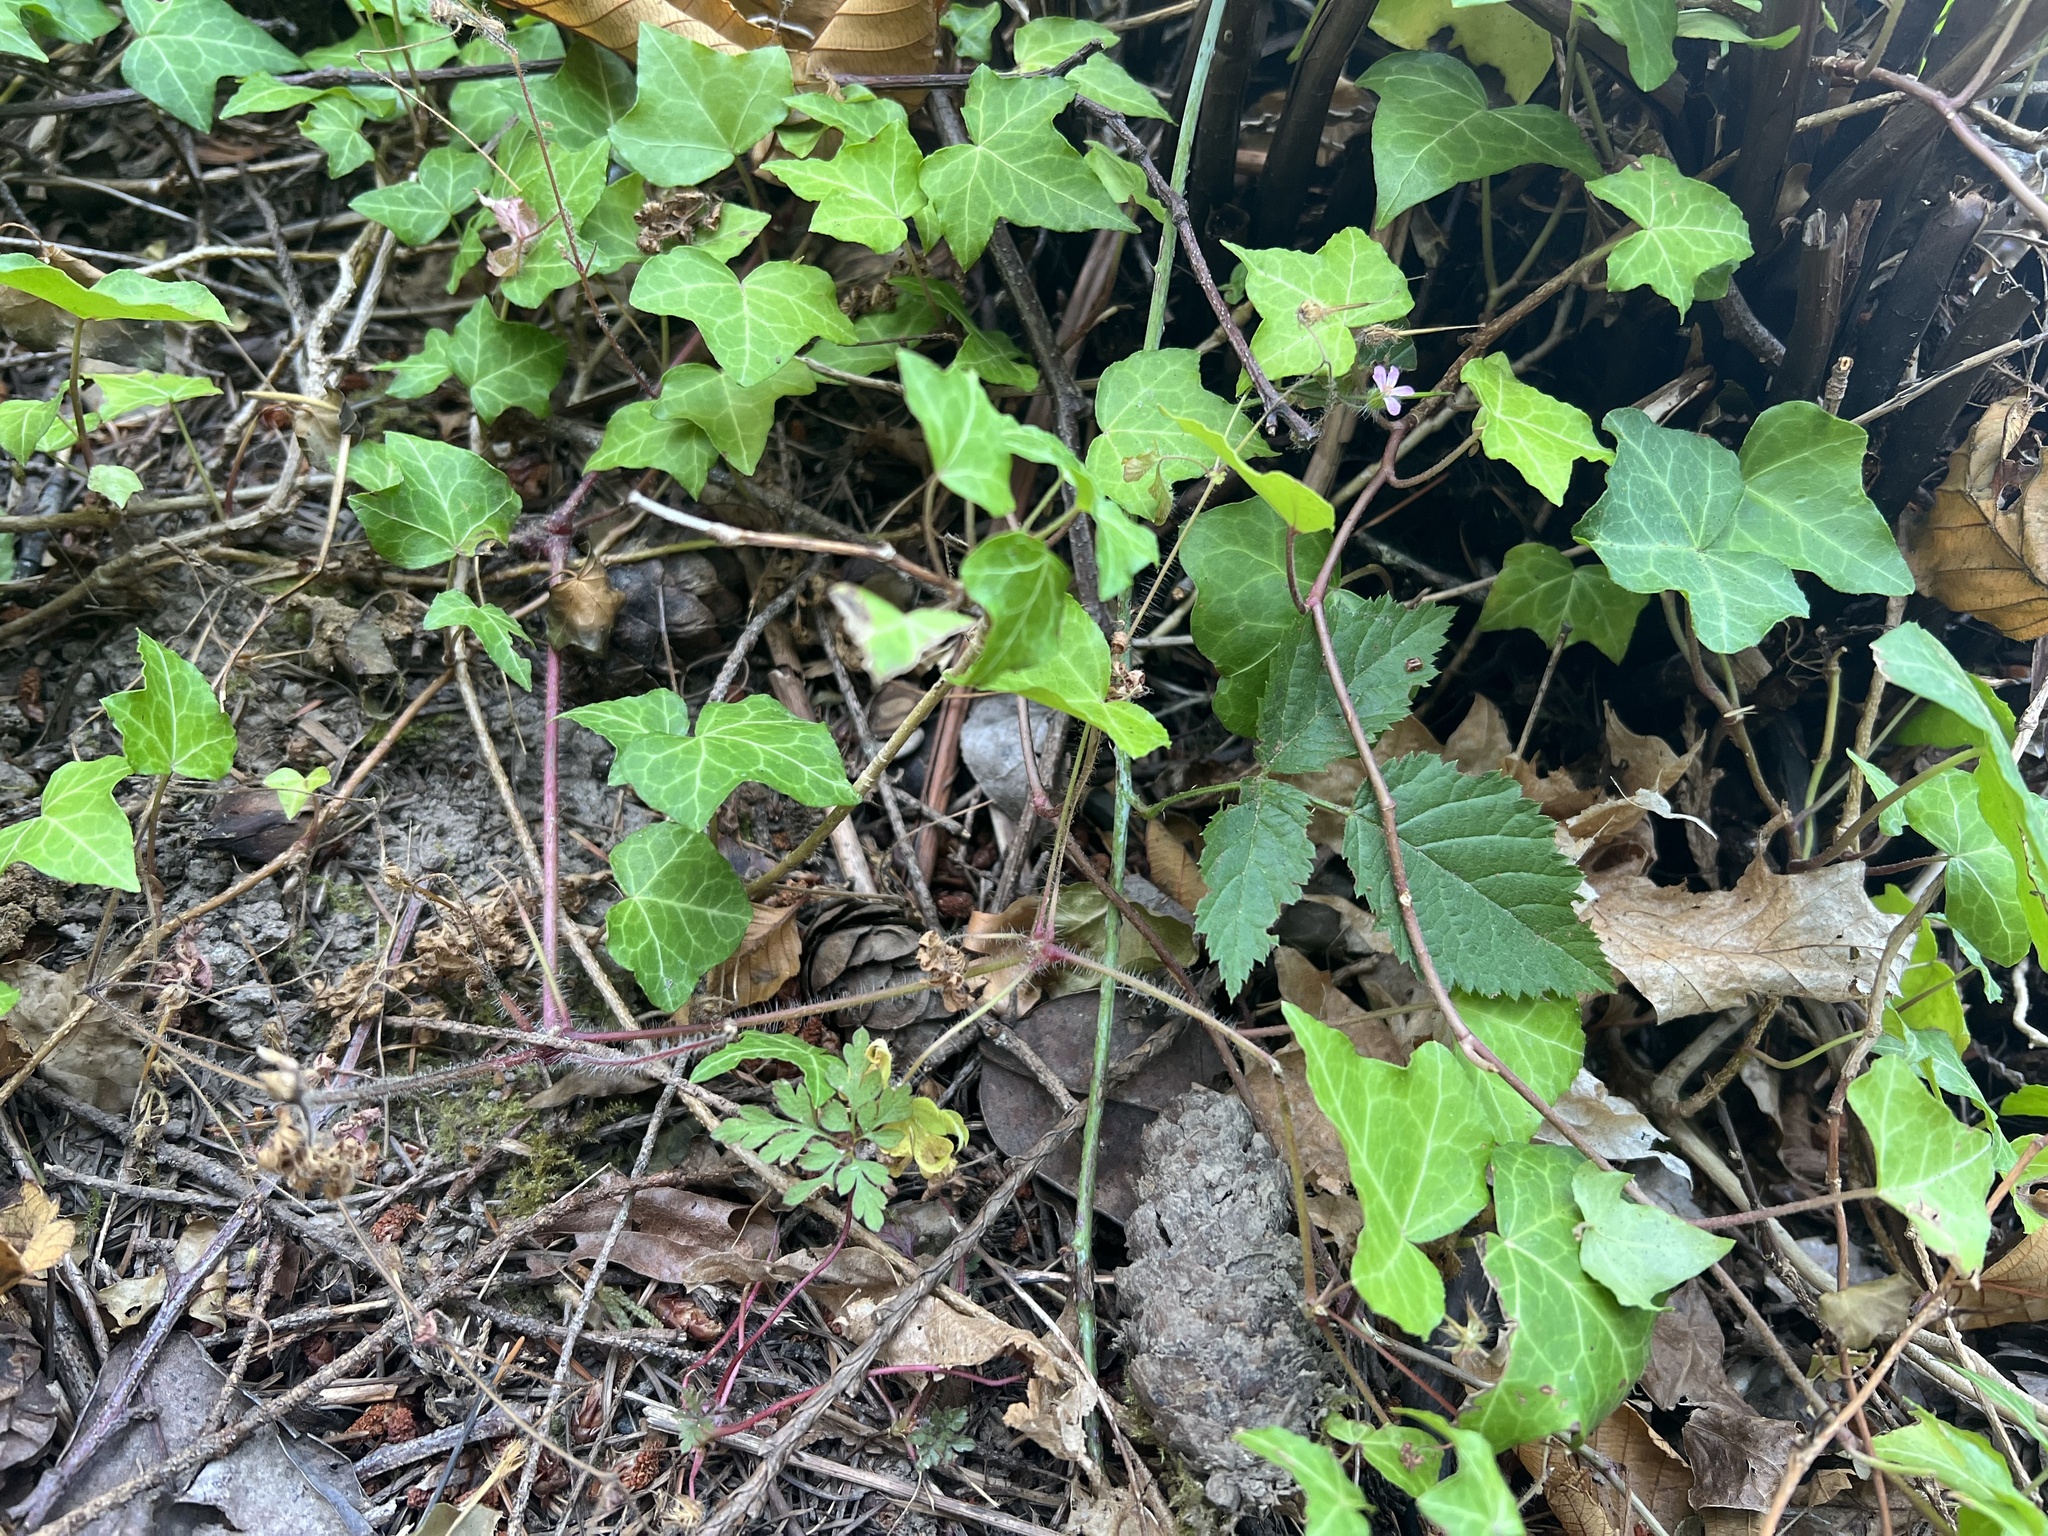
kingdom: Plantae
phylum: Tracheophyta
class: Magnoliopsida
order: Geraniales
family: Geraniaceae
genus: Geranium
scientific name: Geranium robertianum
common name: Herb-robert
